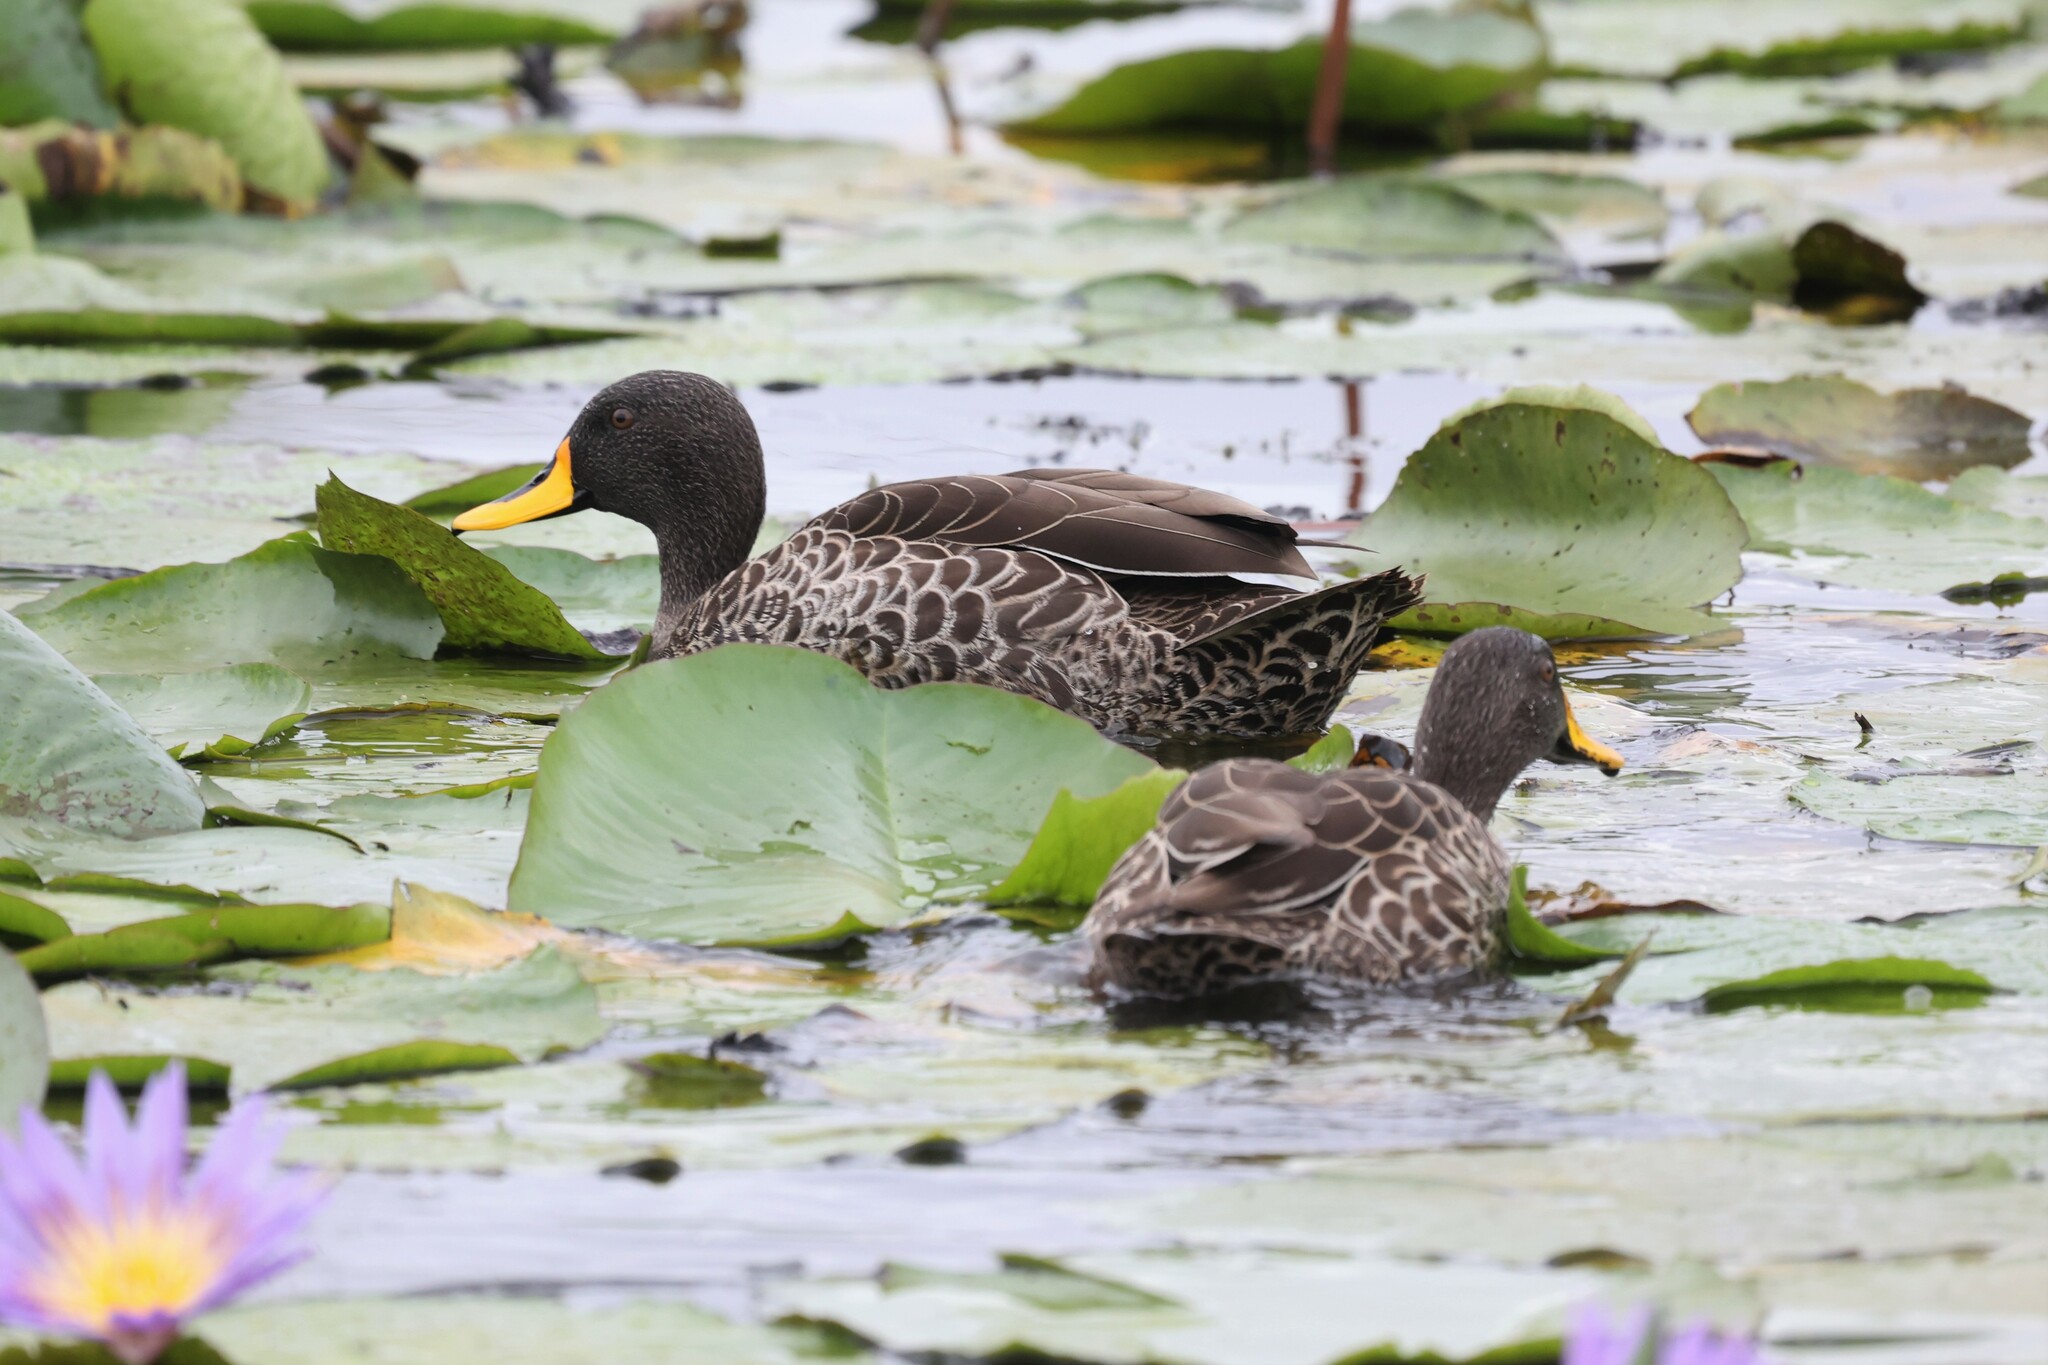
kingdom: Animalia
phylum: Chordata
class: Aves
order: Anseriformes
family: Anatidae
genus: Anas
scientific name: Anas undulata
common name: Yellow-billed duck
